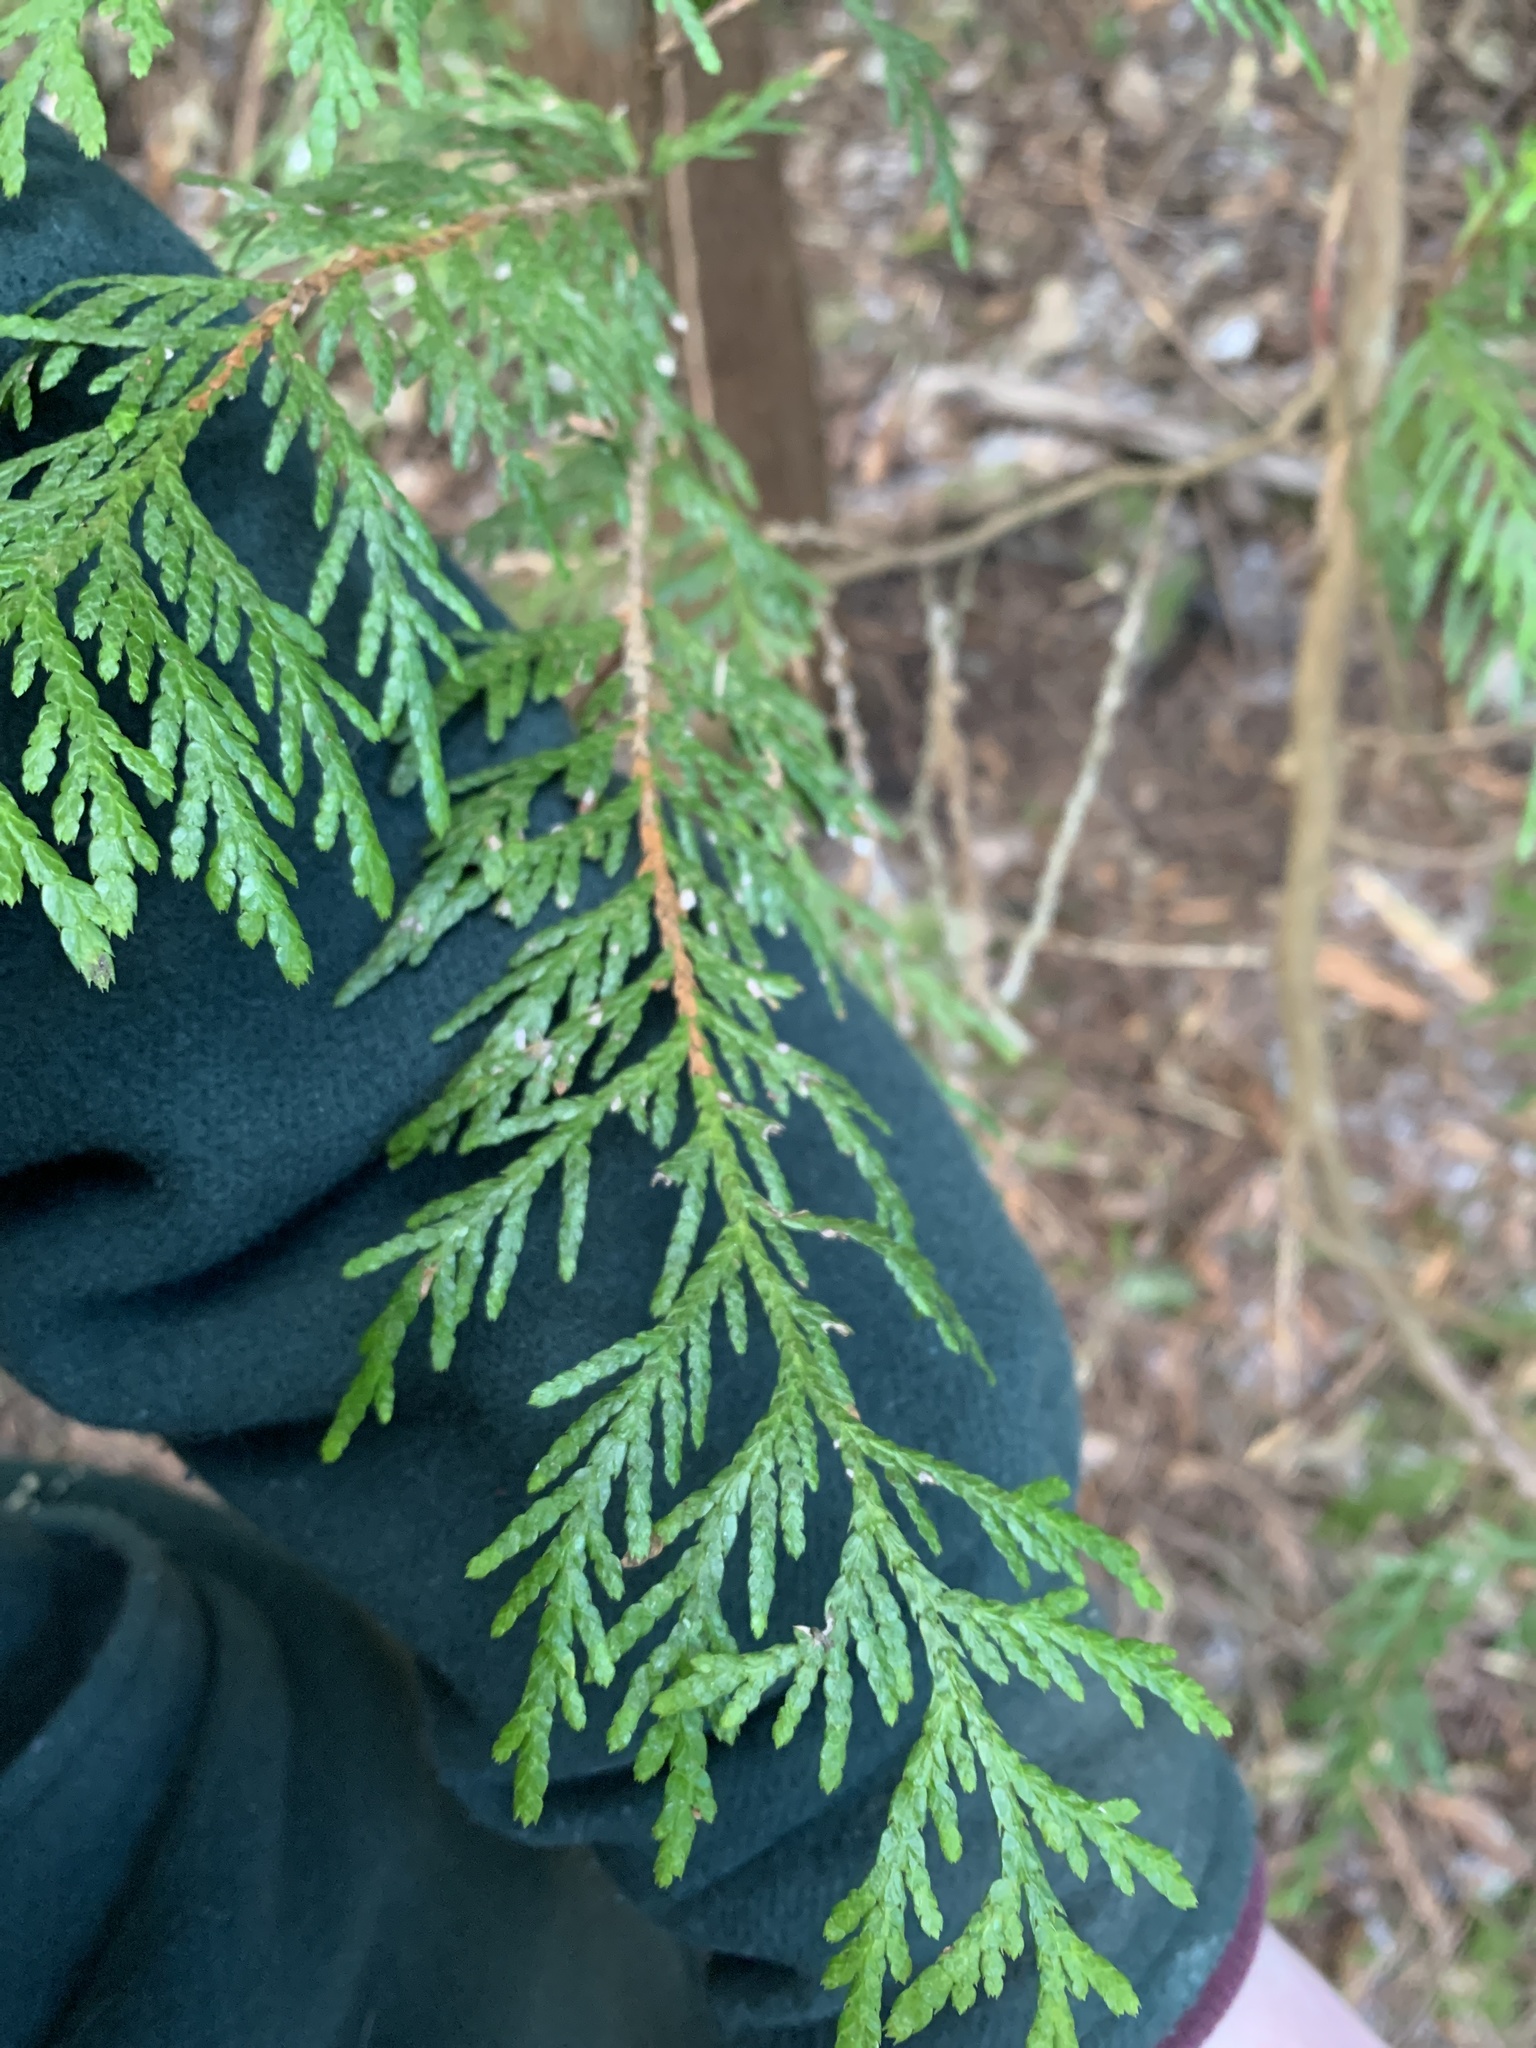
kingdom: Plantae
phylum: Tracheophyta
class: Pinopsida
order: Pinales
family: Cupressaceae
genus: Thuja
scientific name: Thuja plicata
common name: Western red-cedar
